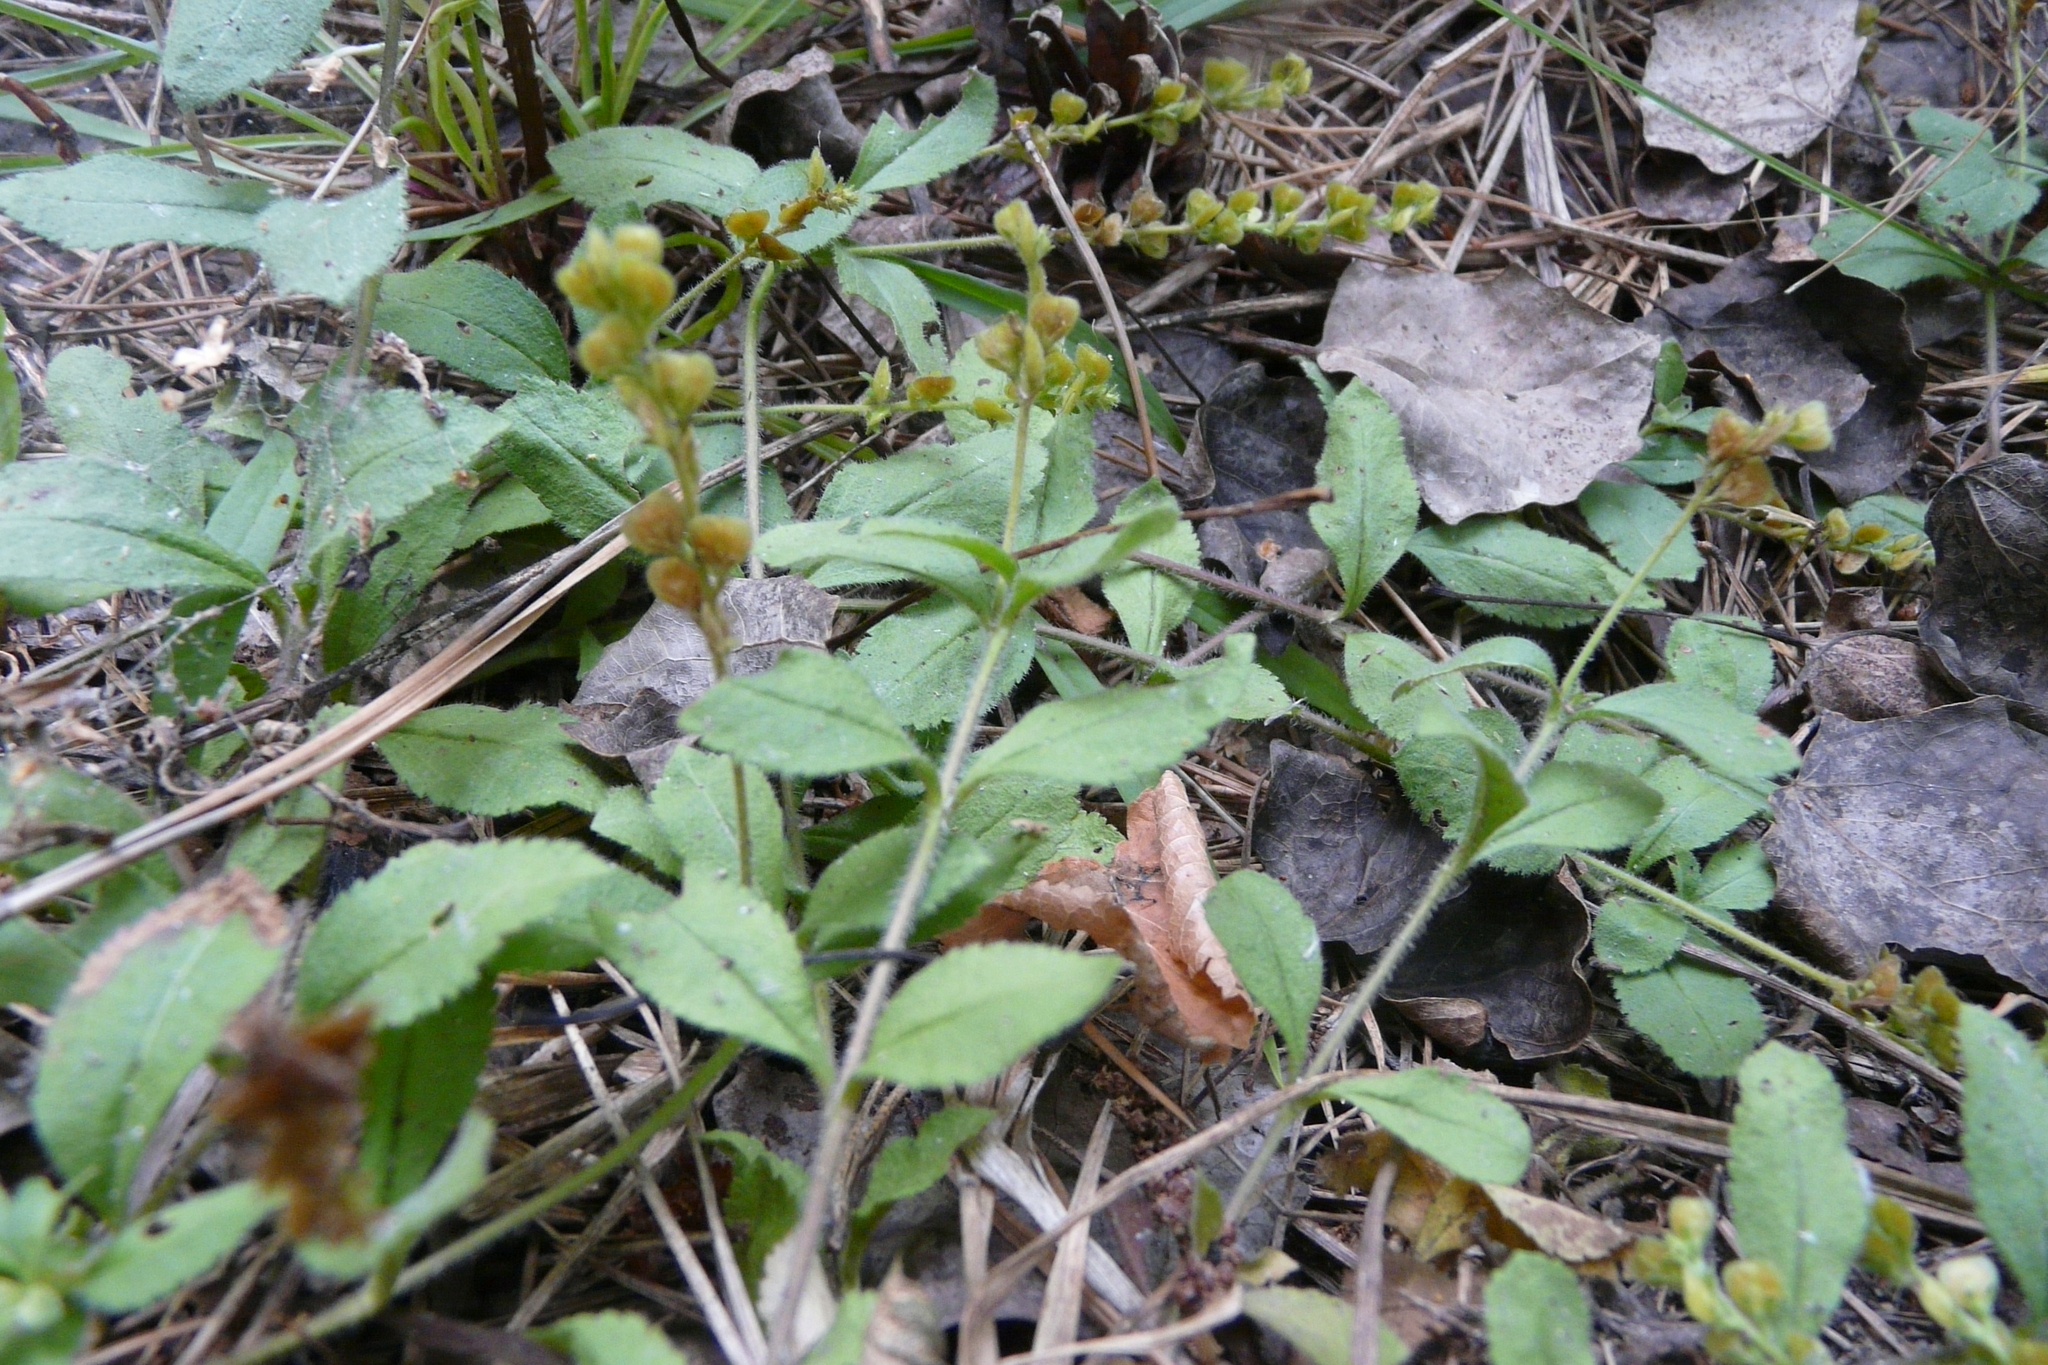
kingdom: Plantae
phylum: Tracheophyta
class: Magnoliopsida
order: Lamiales
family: Plantaginaceae
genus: Veronica
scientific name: Veronica officinalis
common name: Common speedwell
